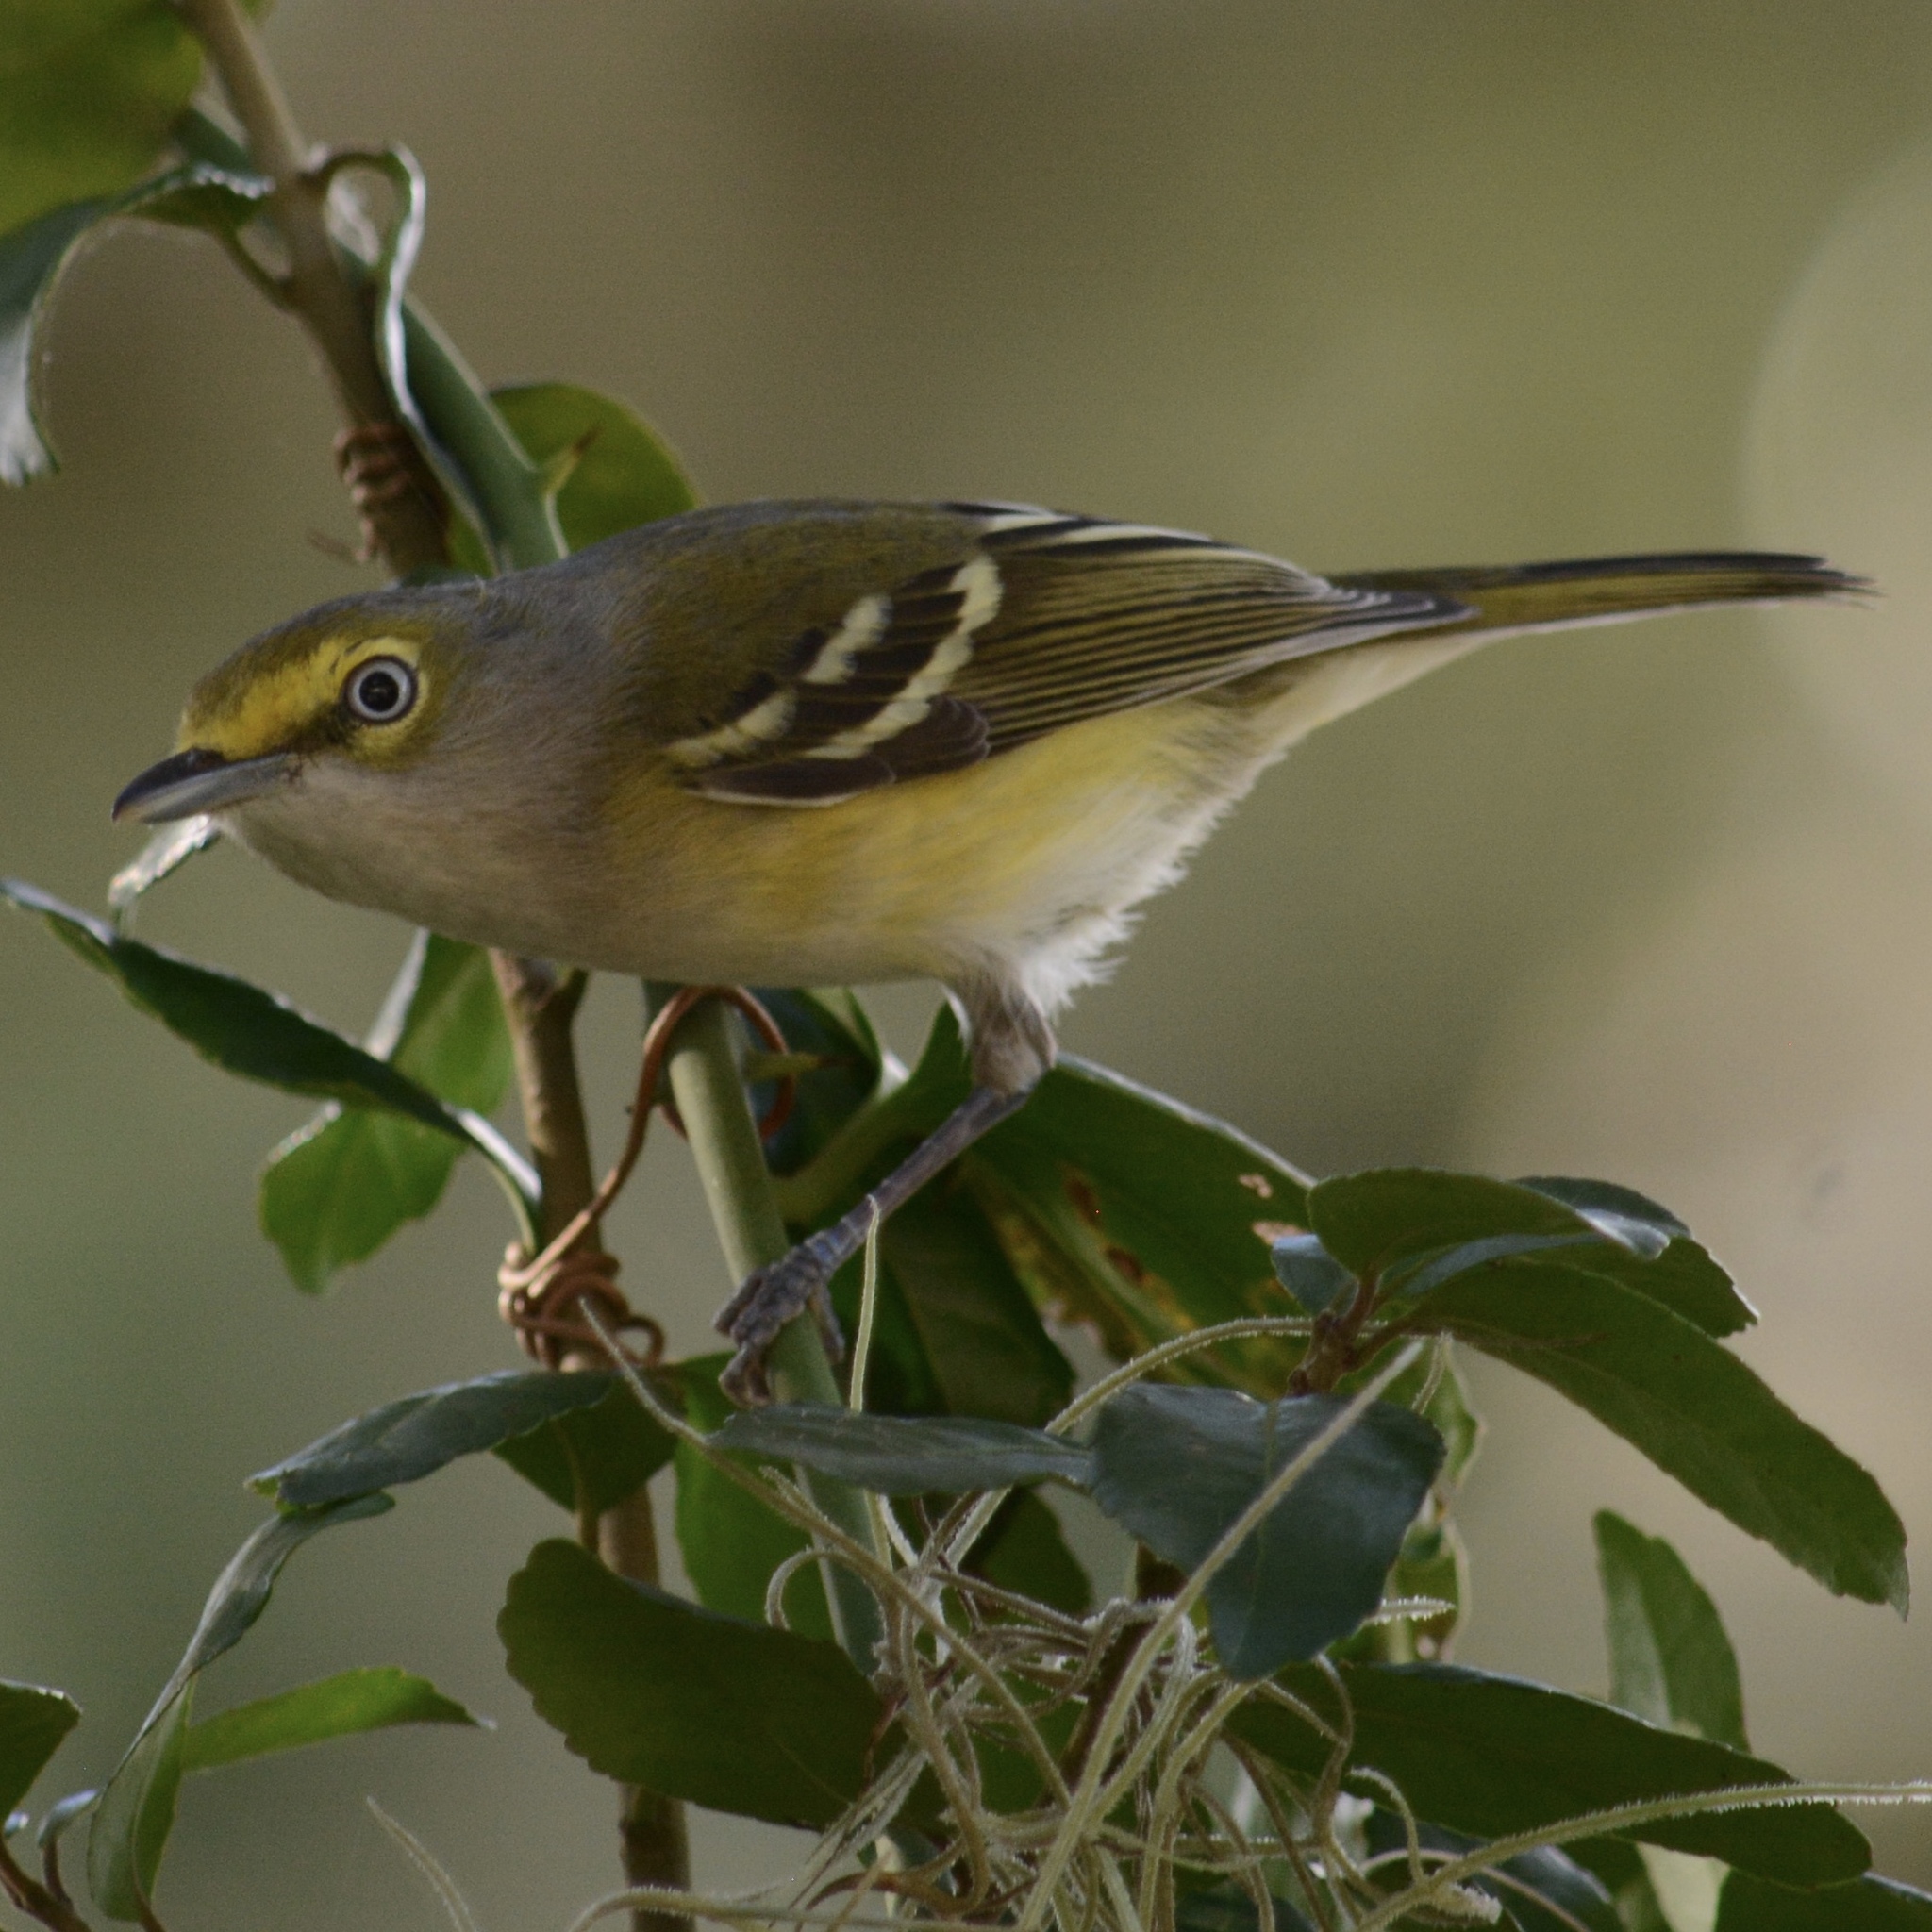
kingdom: Animalia
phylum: Chordata
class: Aves
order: Passeriformes
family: Vireonidae
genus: Vireo
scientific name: Vireo griseus
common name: White-eyed vireo
